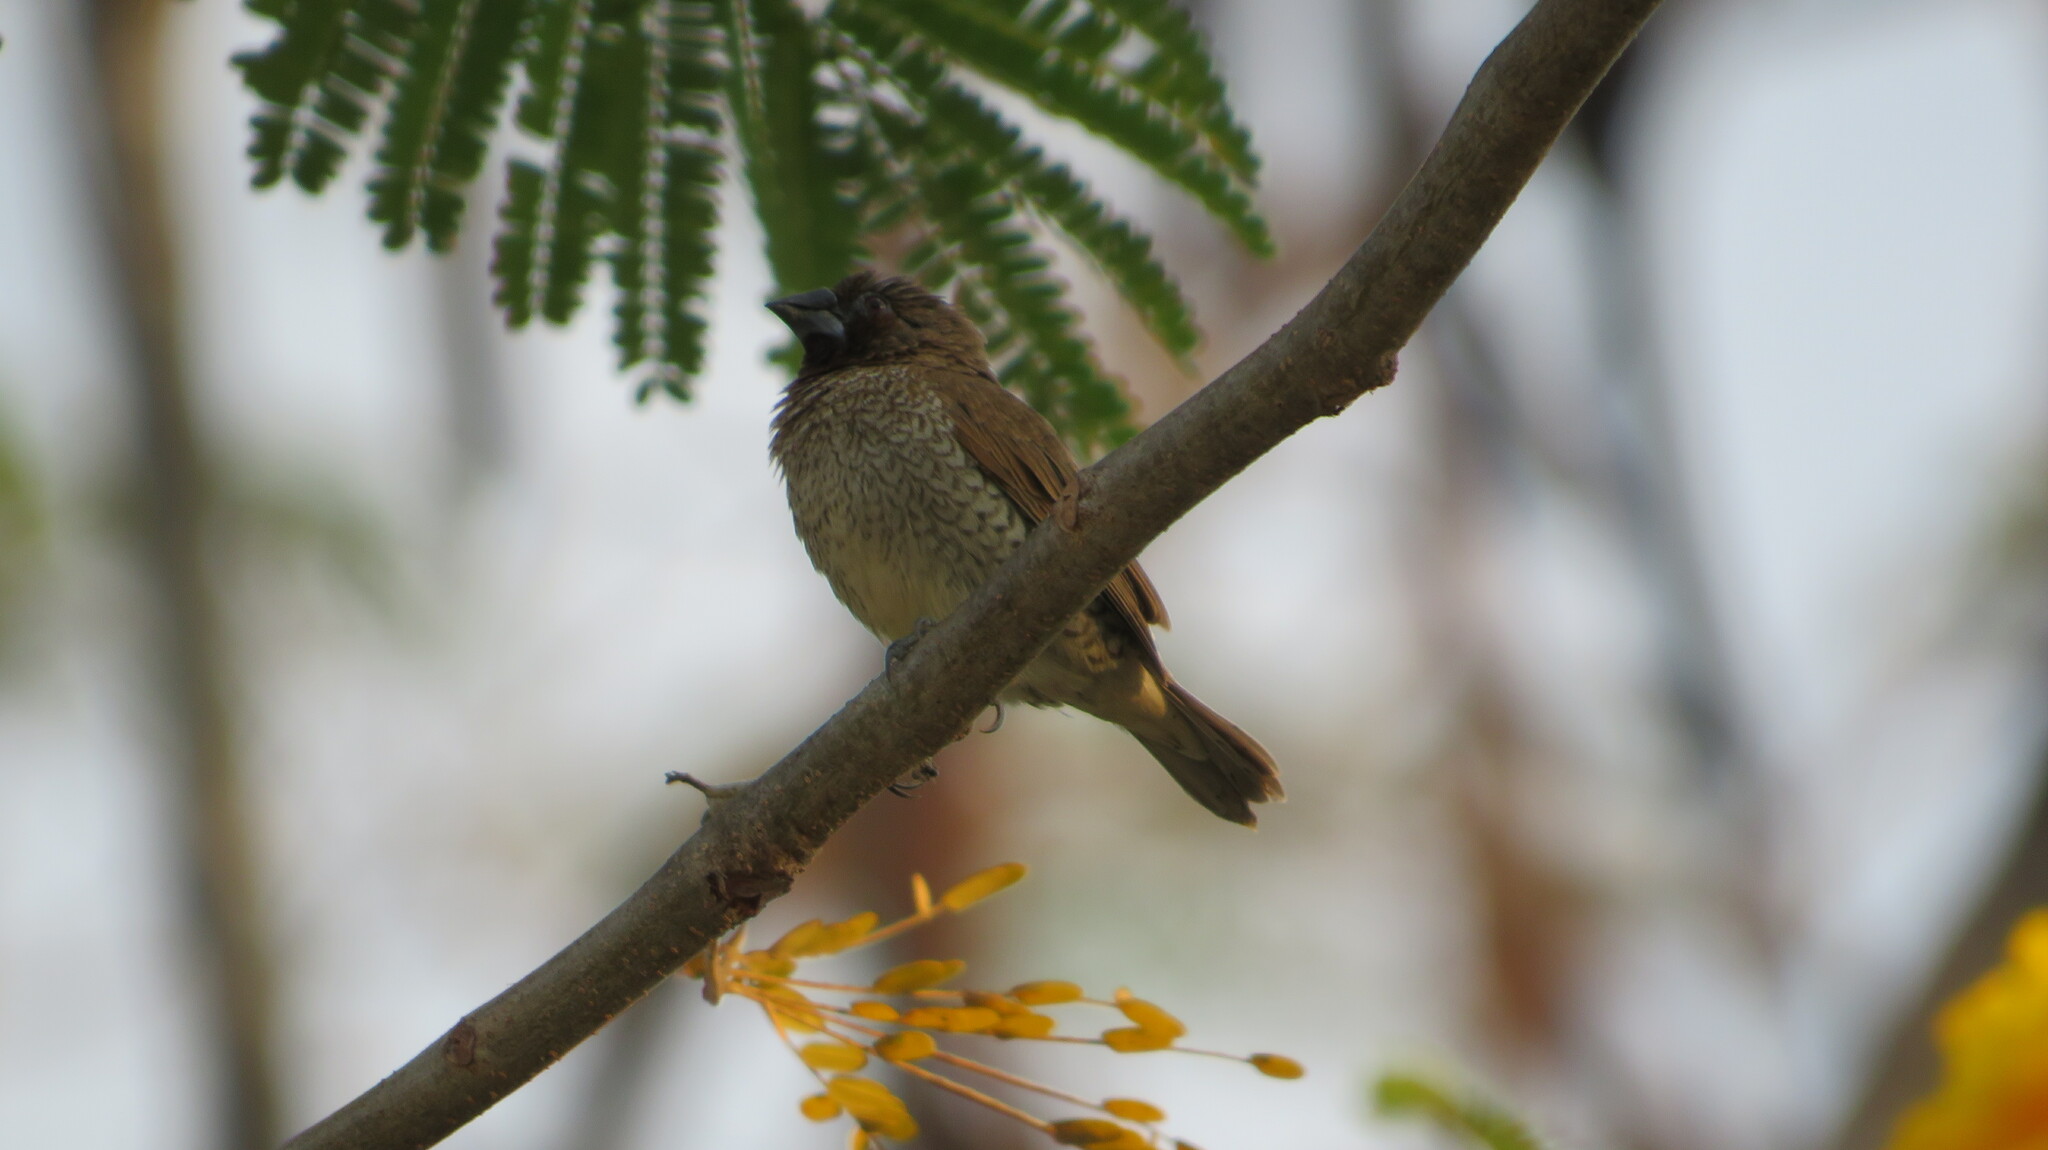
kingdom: Animalia
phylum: Chordata
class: Aves
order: Passeriformes
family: Estrildidae
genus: Lonchura
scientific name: Lonchura punctulata
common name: Scaly-breasted munia
